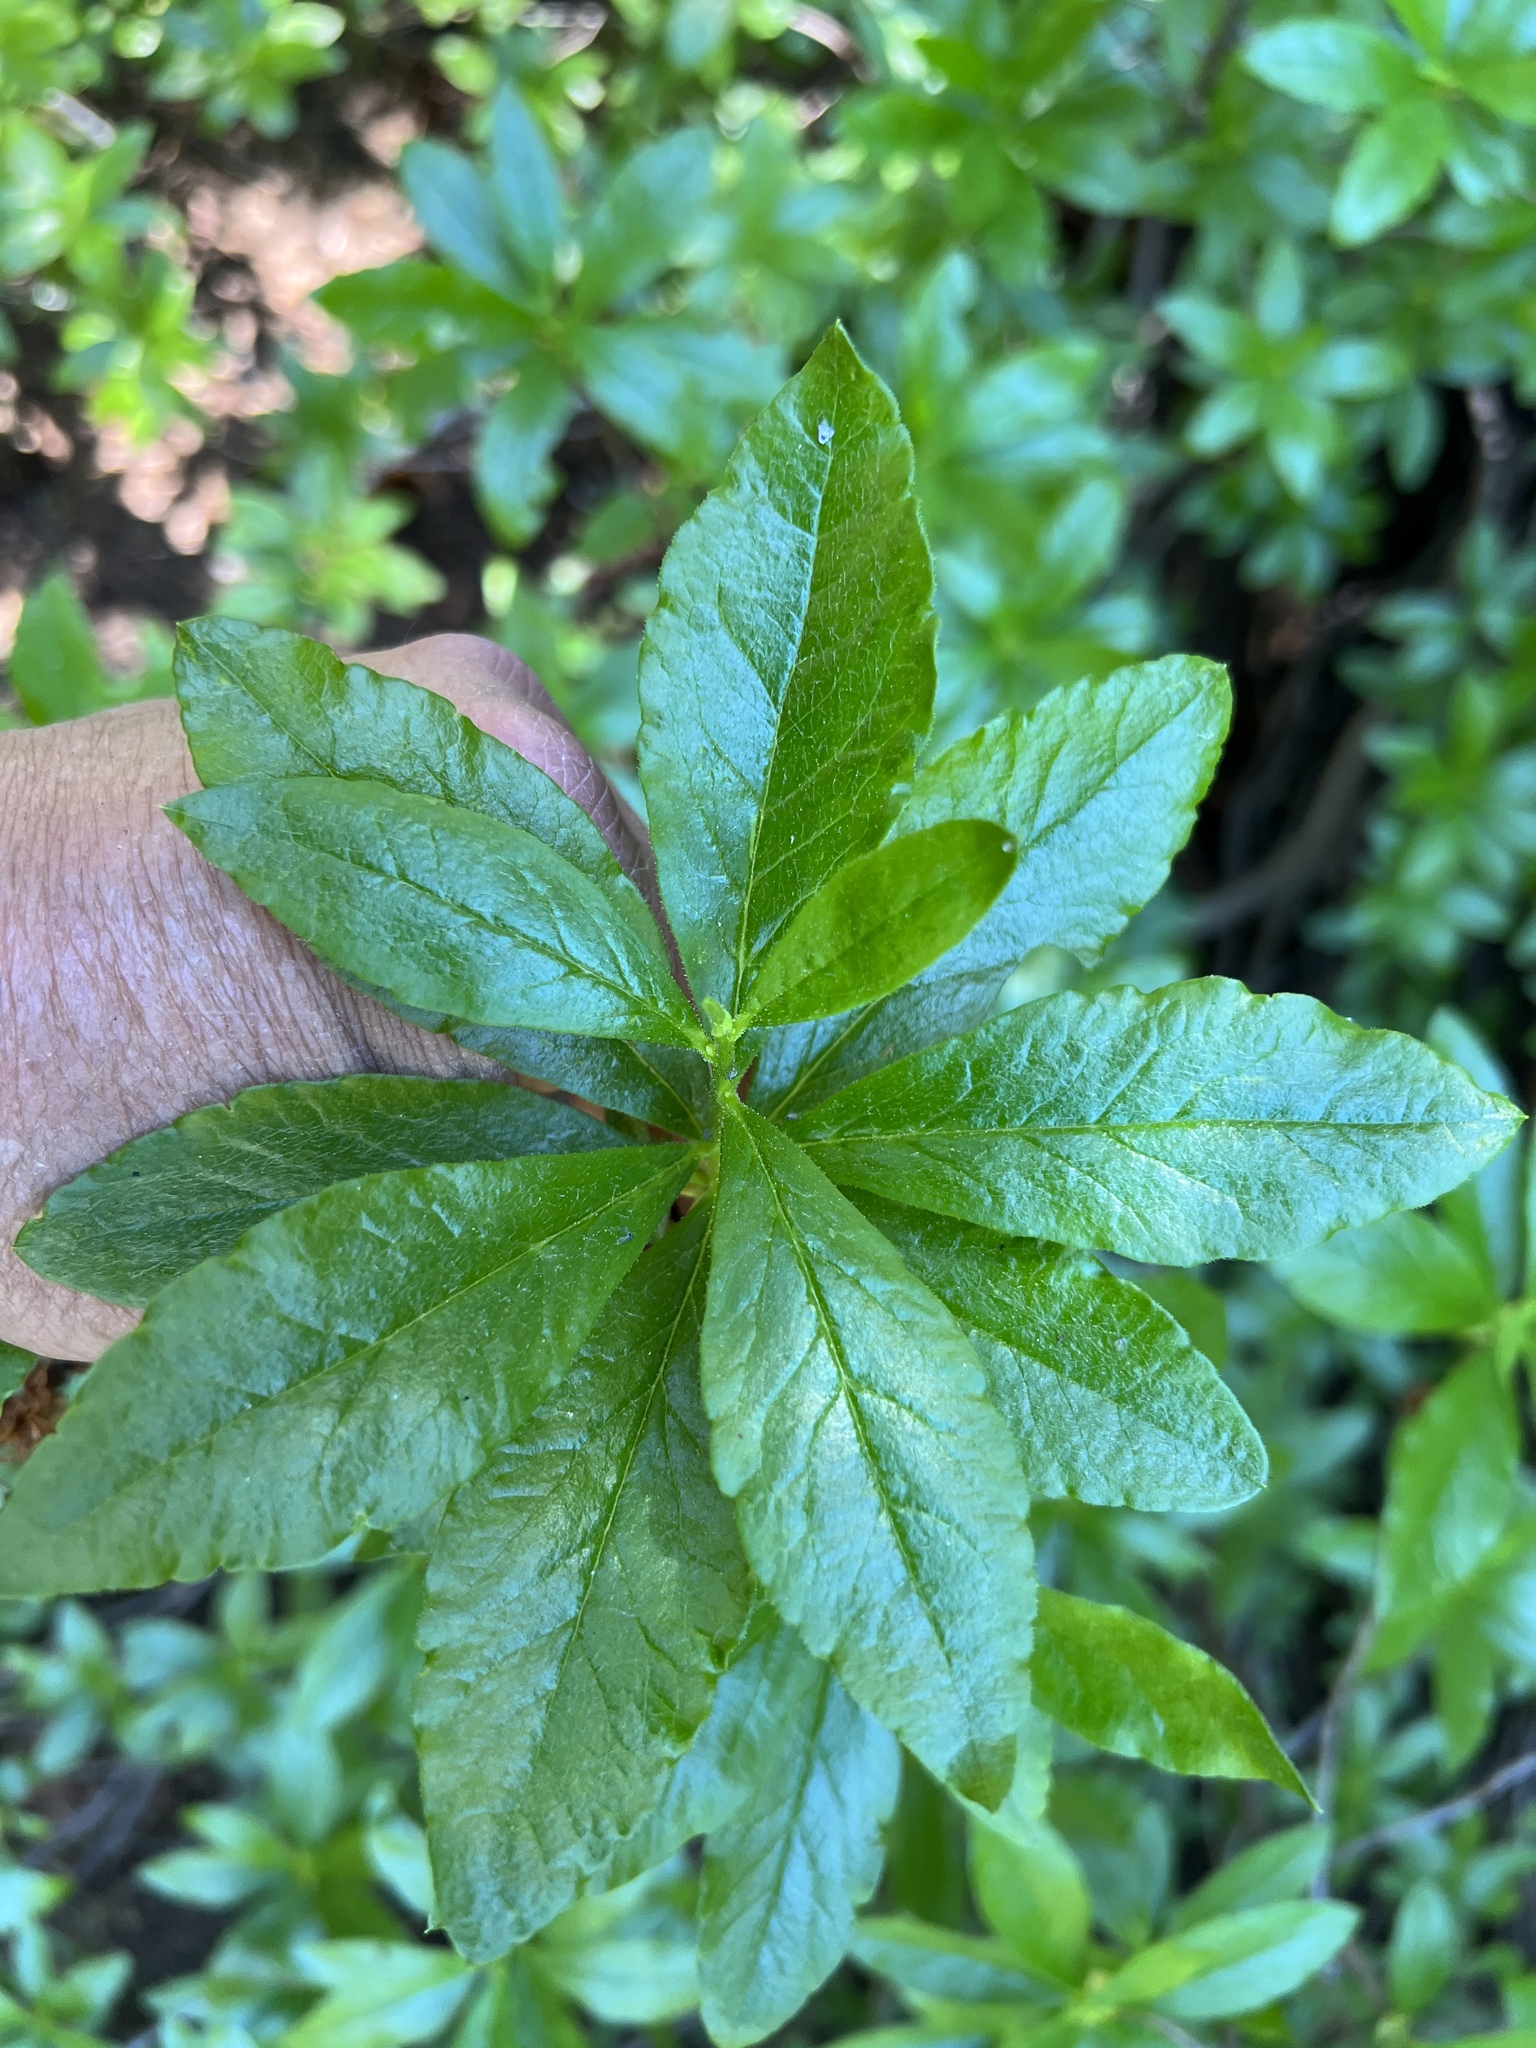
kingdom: Plantae
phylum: Tracheophyta
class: Magnoliopsida
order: Ericales
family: Ericaceae
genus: Rhododendron
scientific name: Rhododendron albiflorum
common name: White rhododendron
